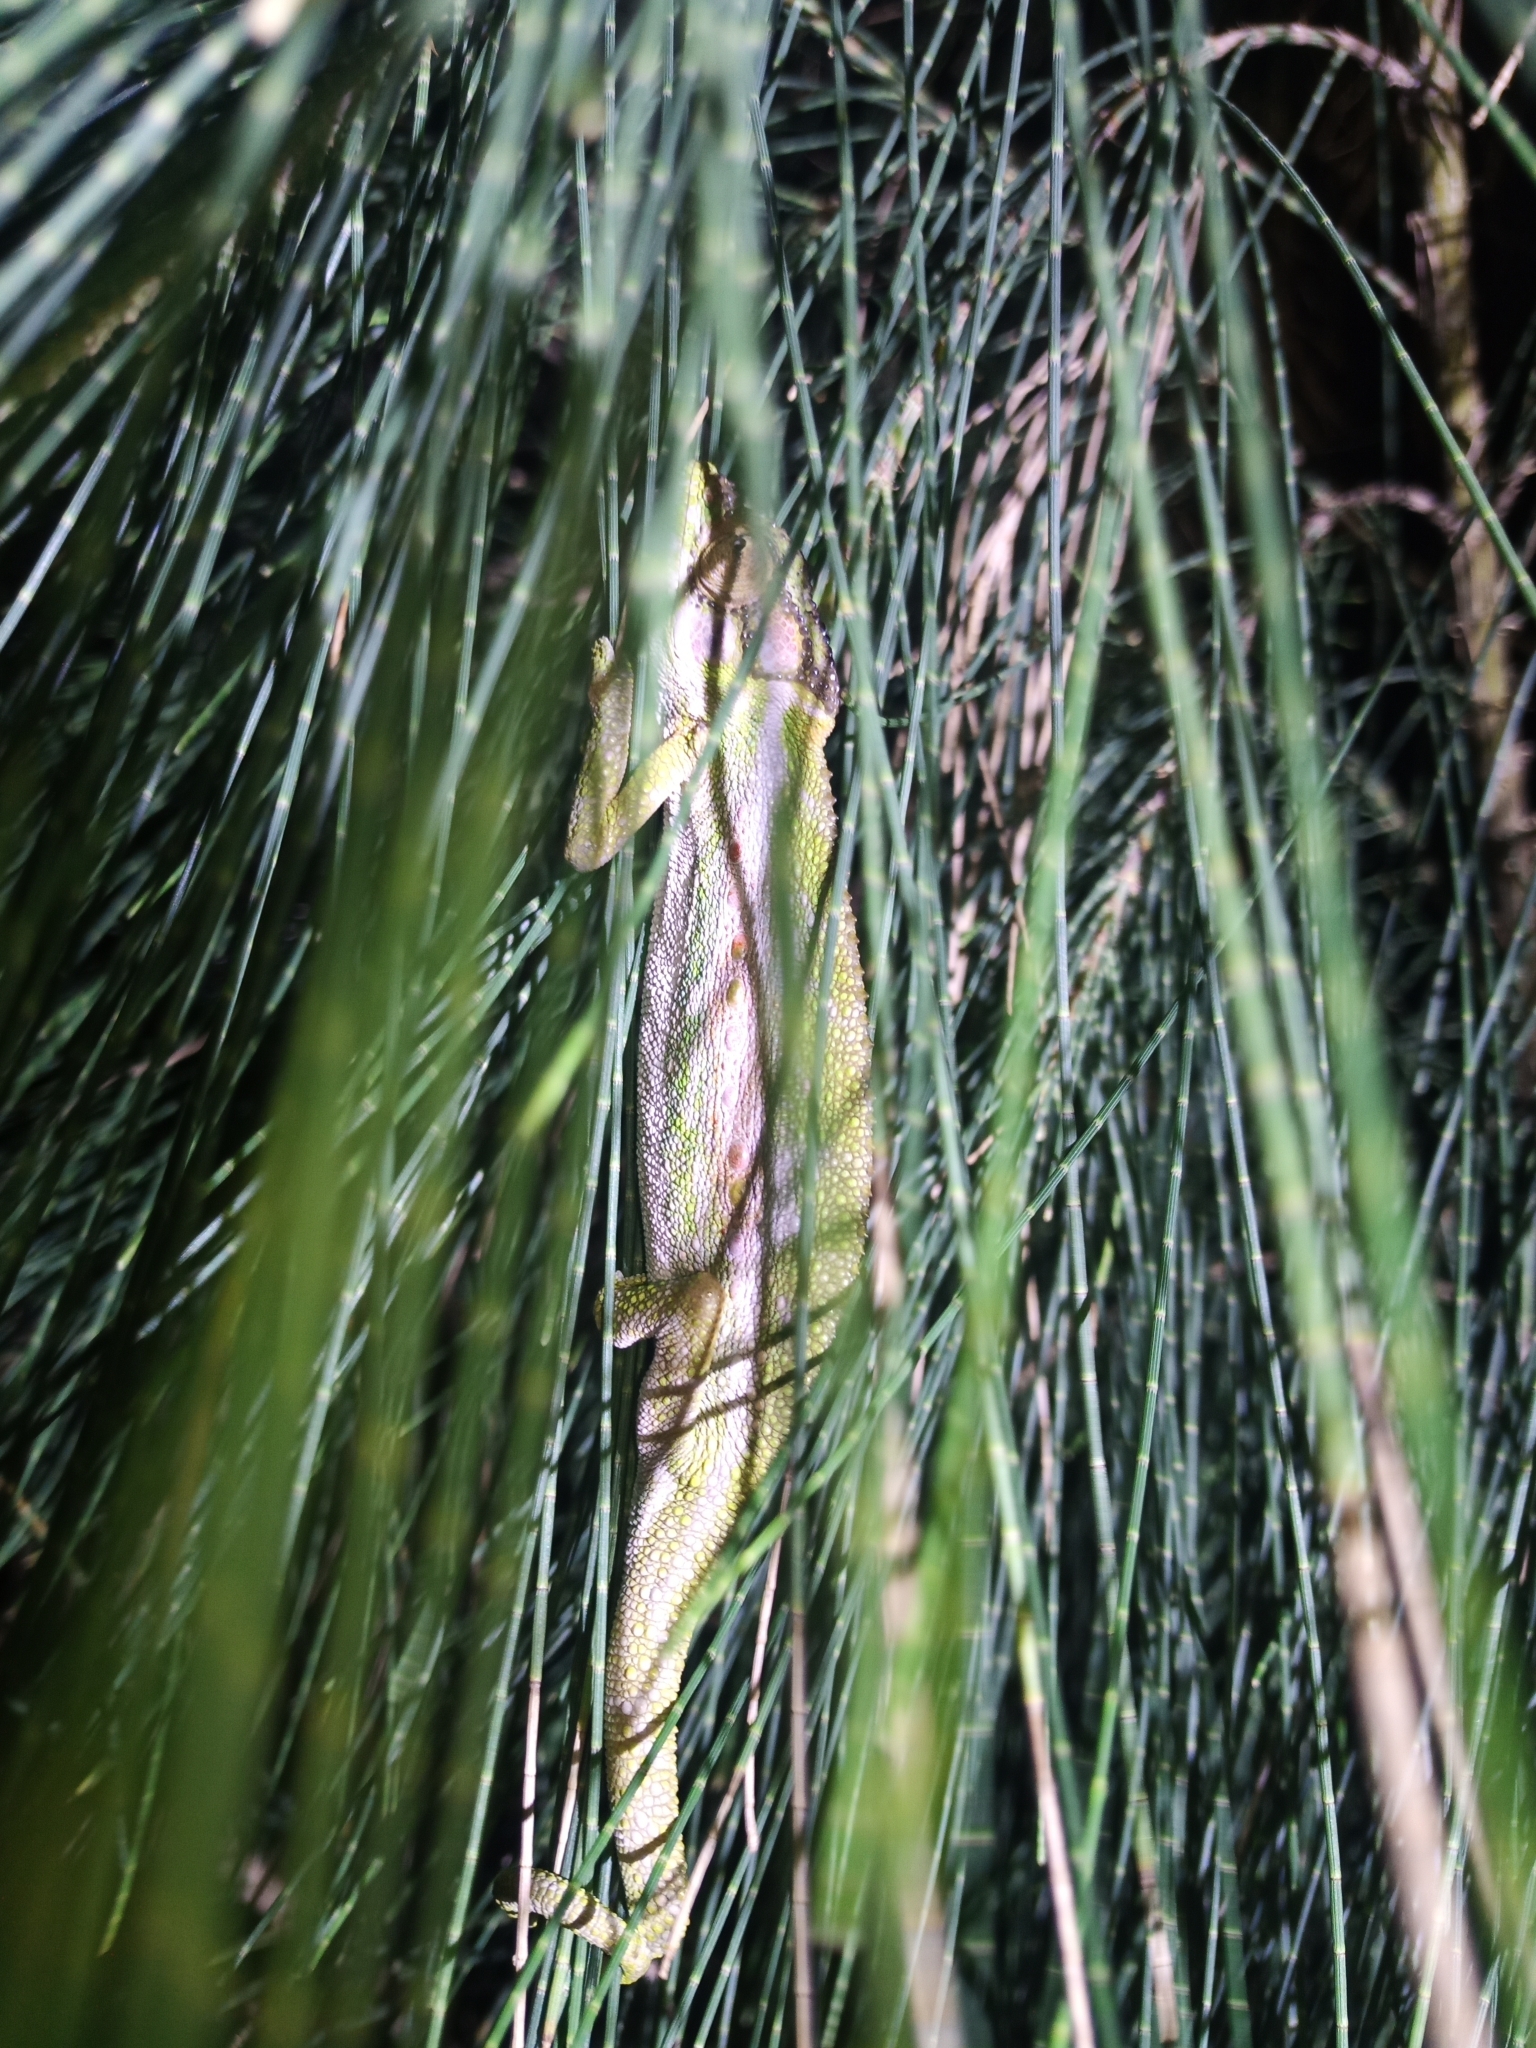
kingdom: Animalia
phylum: Chordata
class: Squamata
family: Chamaeleonidae
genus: Bradypodion
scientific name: Bradypodion pumilum
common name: Cape dwarf chameleon
